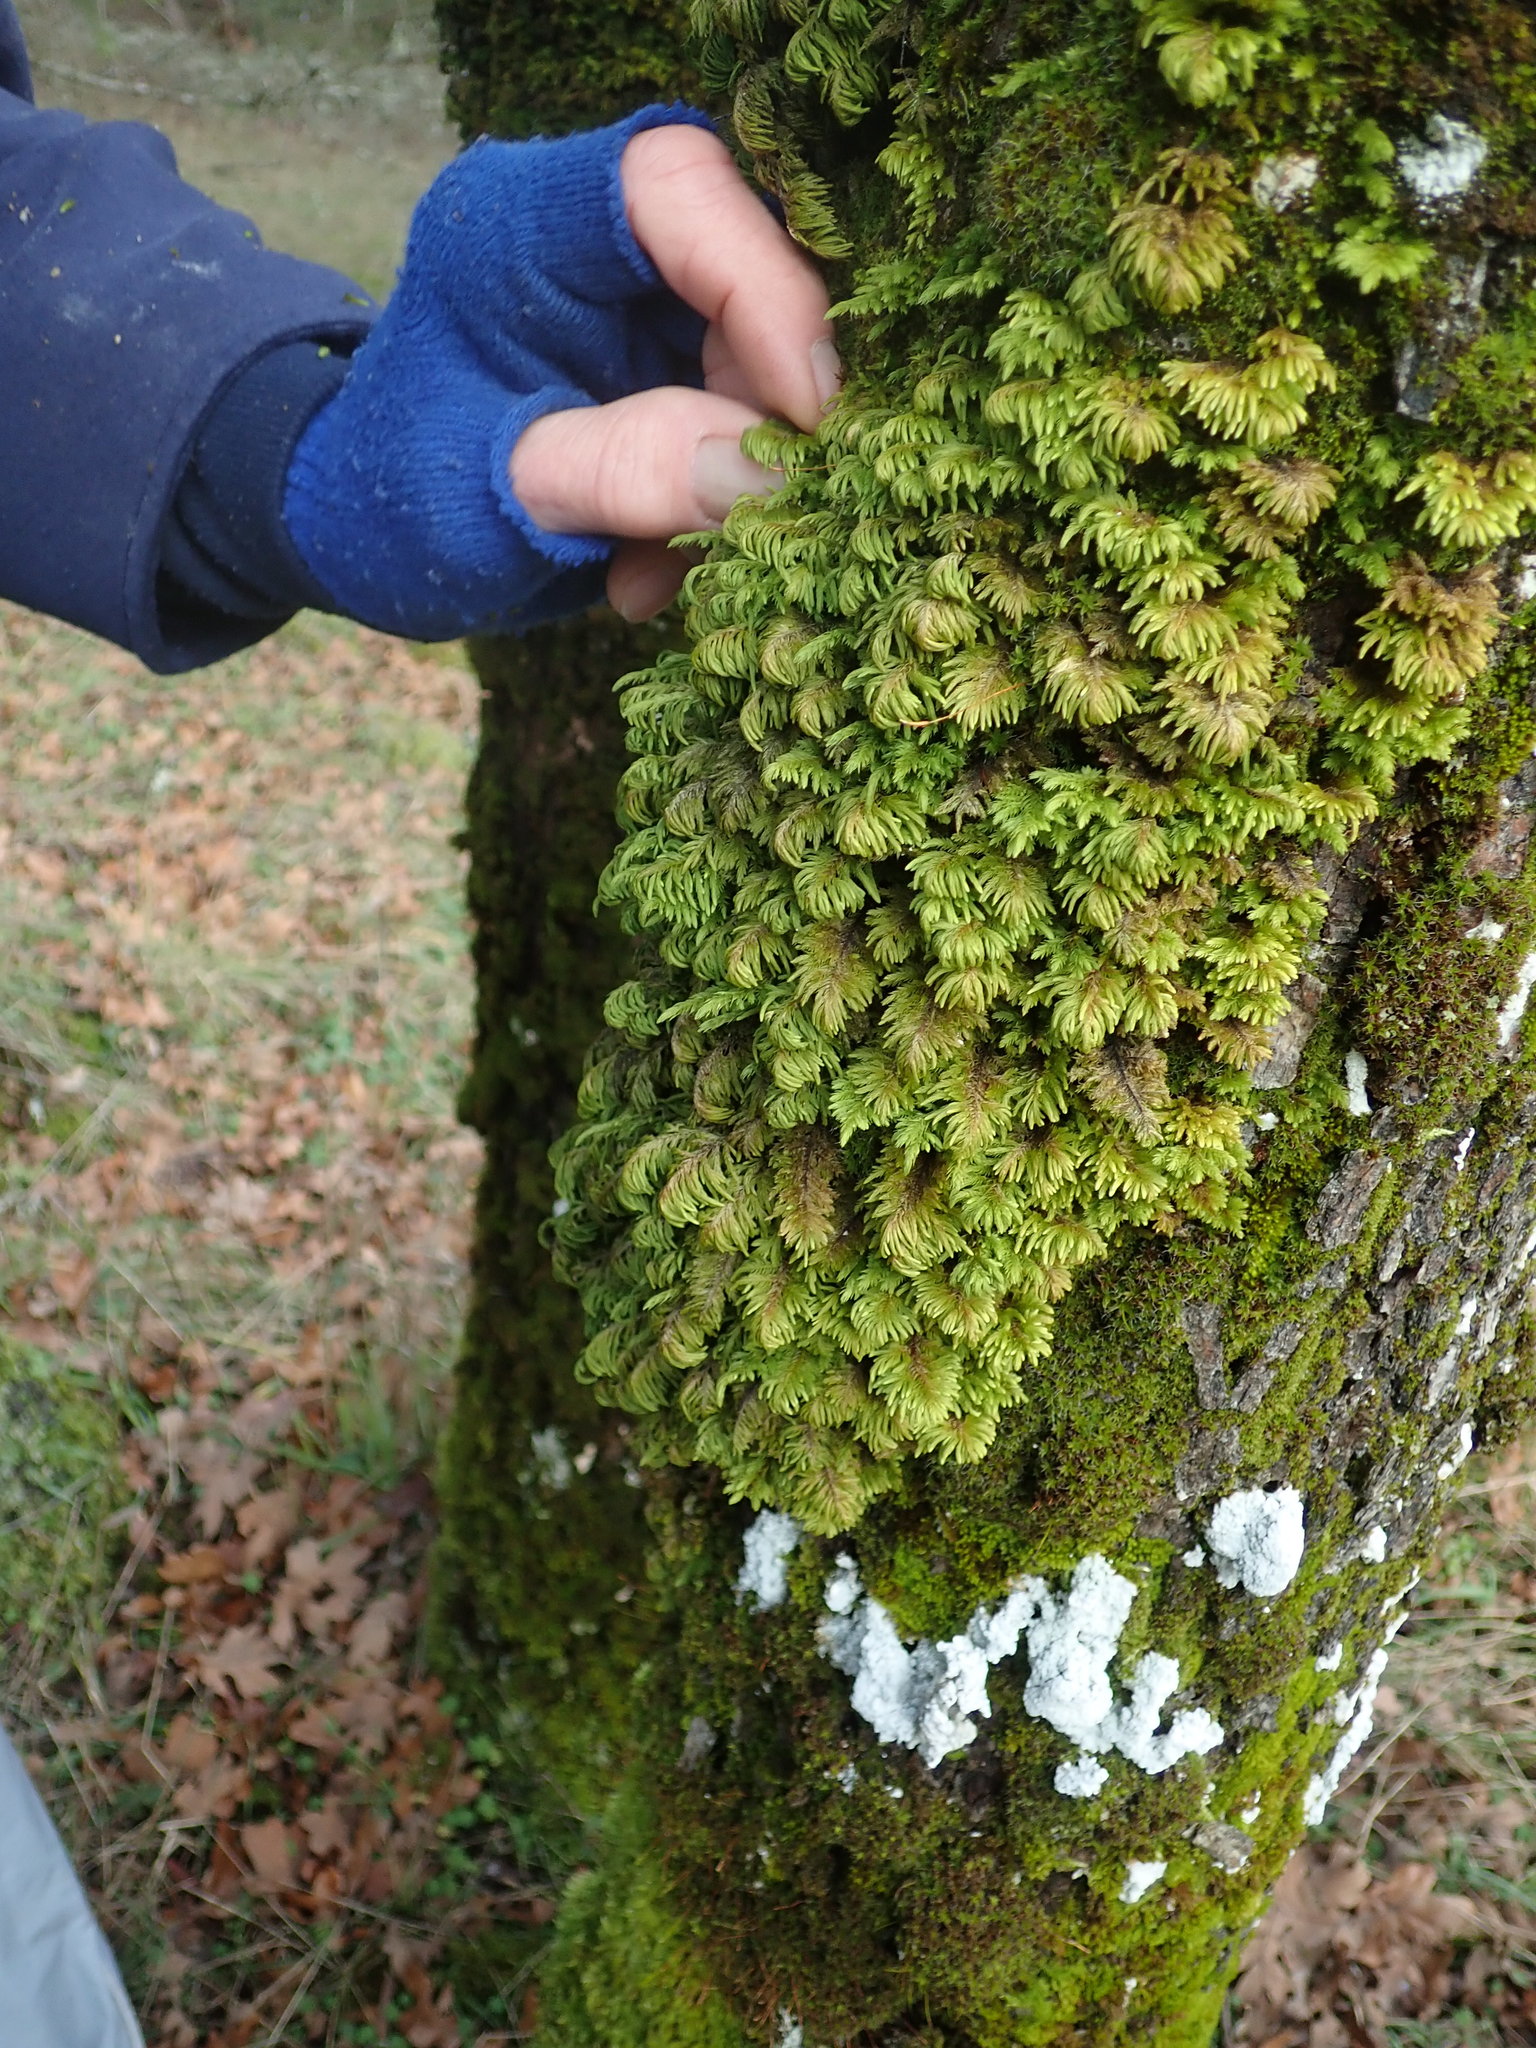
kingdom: Plantae
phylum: Bryophyta
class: Bryopsida
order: Hypnales
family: Cryphaeaceae
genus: Dendroalsia
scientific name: Dendroalsia abietina
